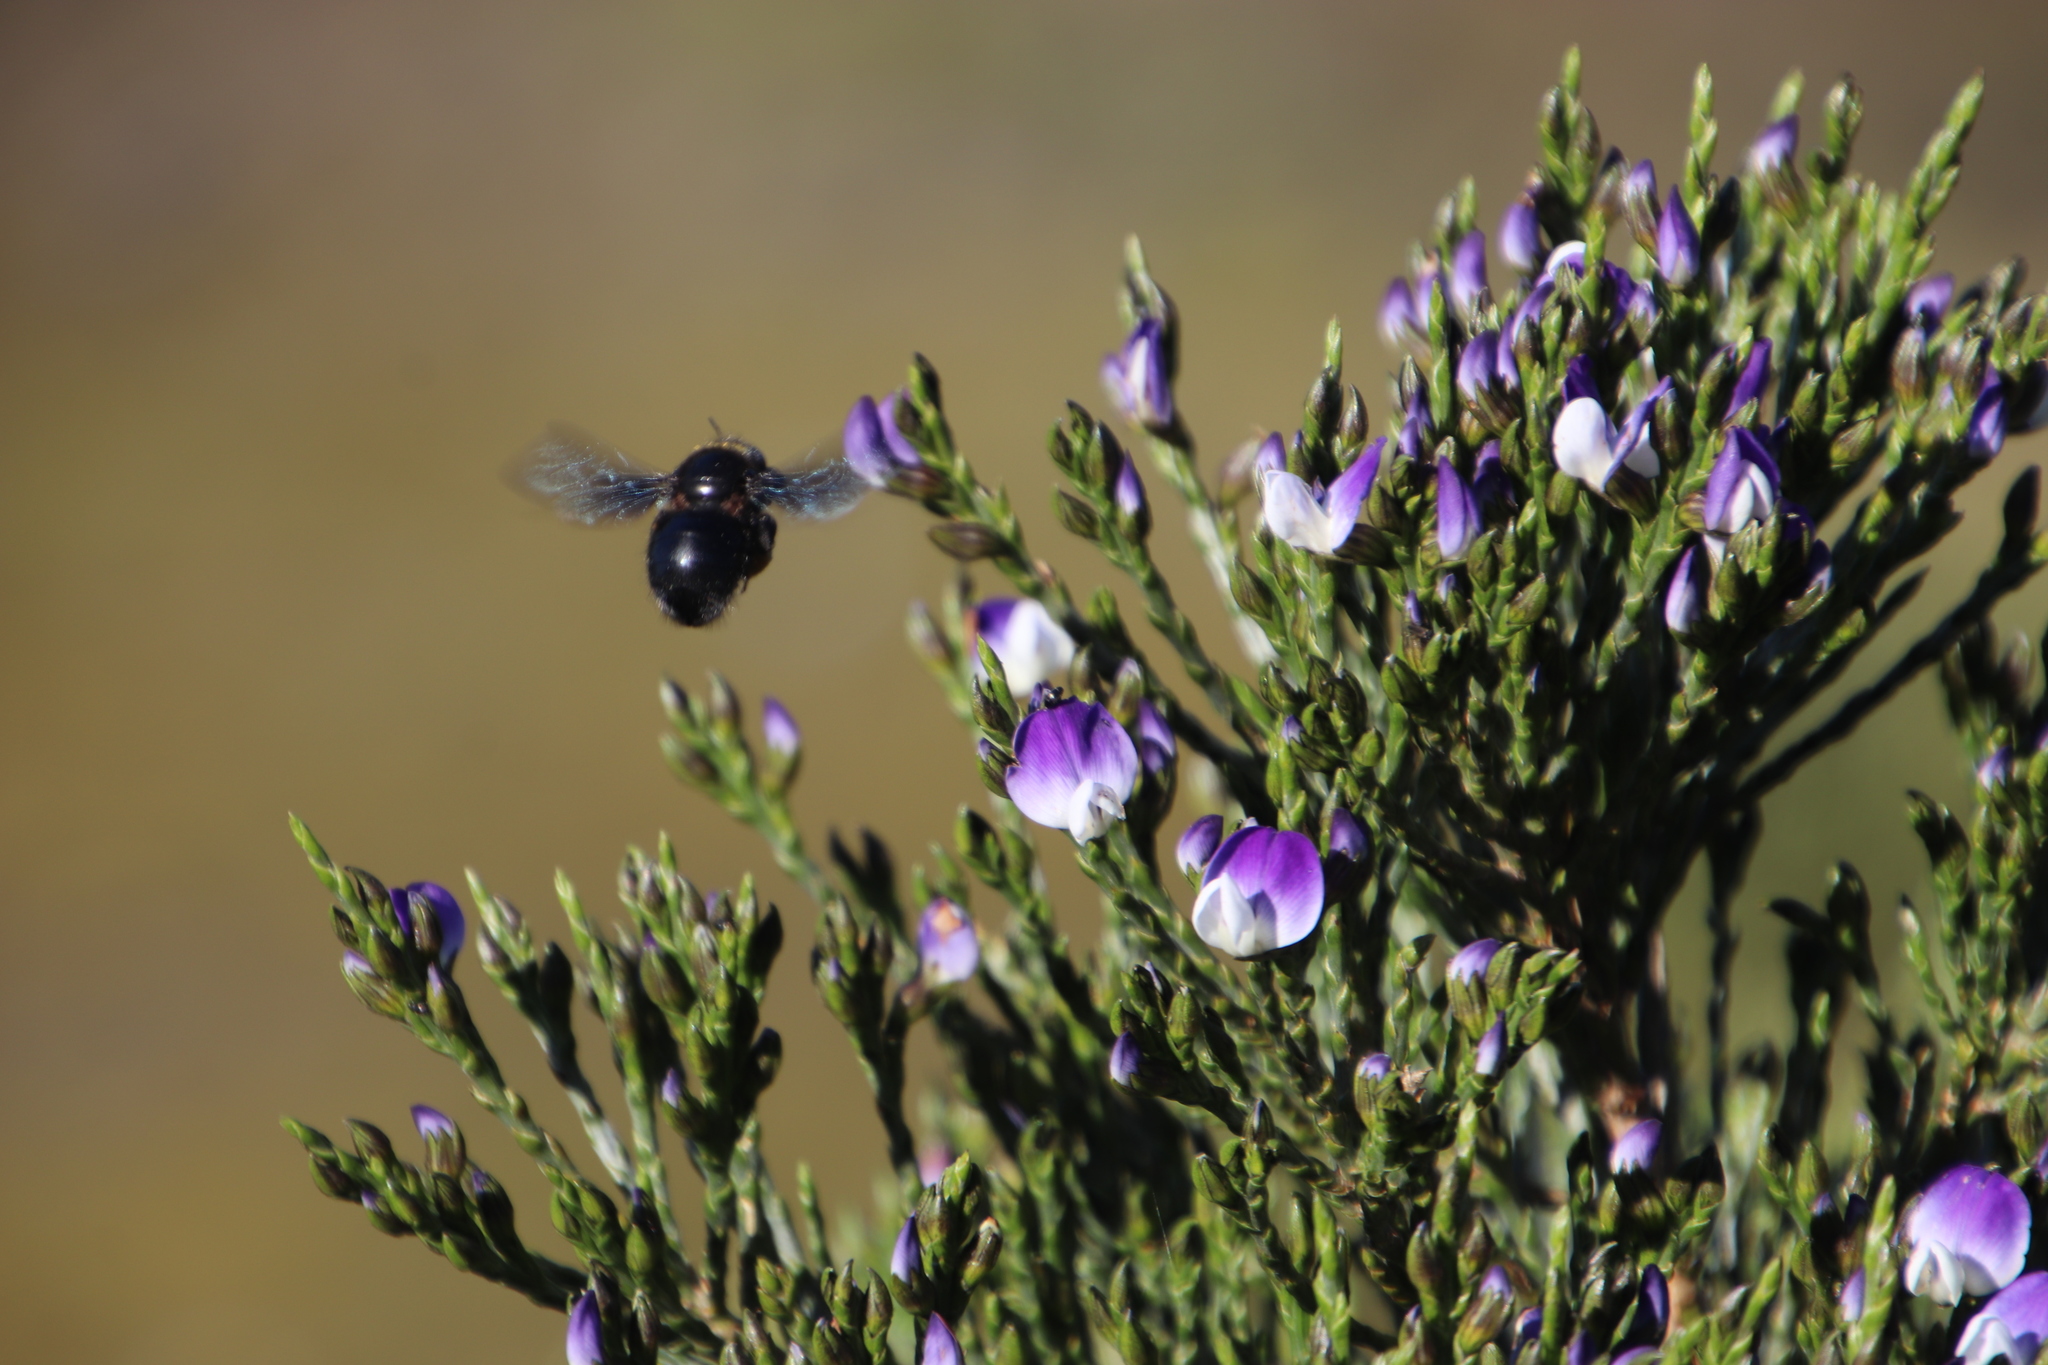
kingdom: Plantae
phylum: Tracheophyta
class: Magnoliopsida
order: Fabales
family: Fabaceae
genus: Psoralea
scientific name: Psoralea congesta
